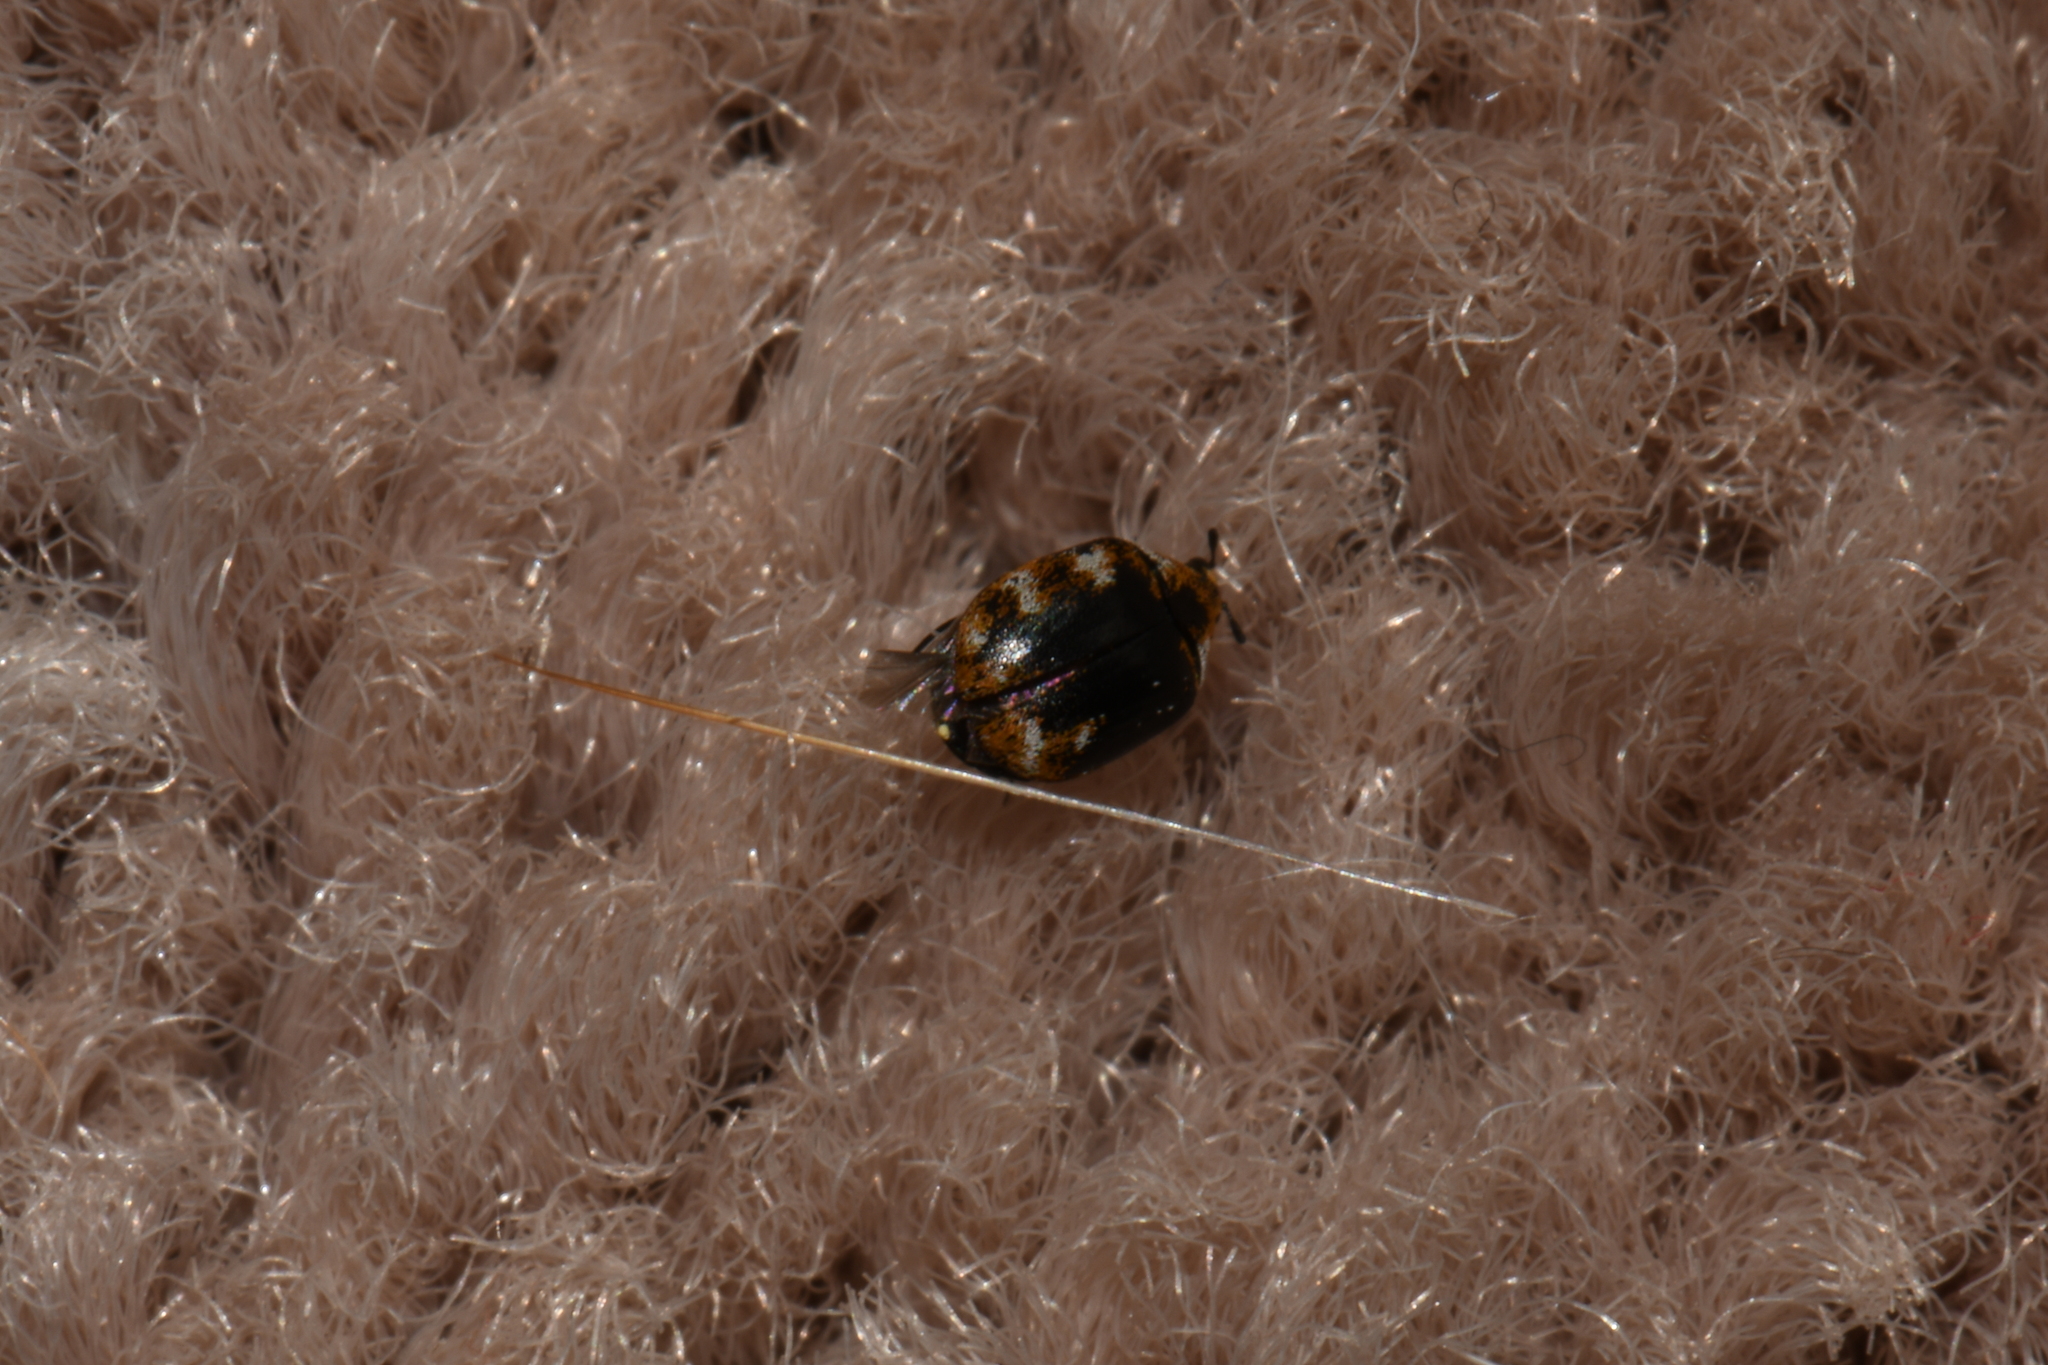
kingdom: Animalia
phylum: Arthropoda
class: Insecta
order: Coleoptera
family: Dermestidae
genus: Anthrenus
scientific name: Anthrenus verbasci
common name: Varied carpet beetle
